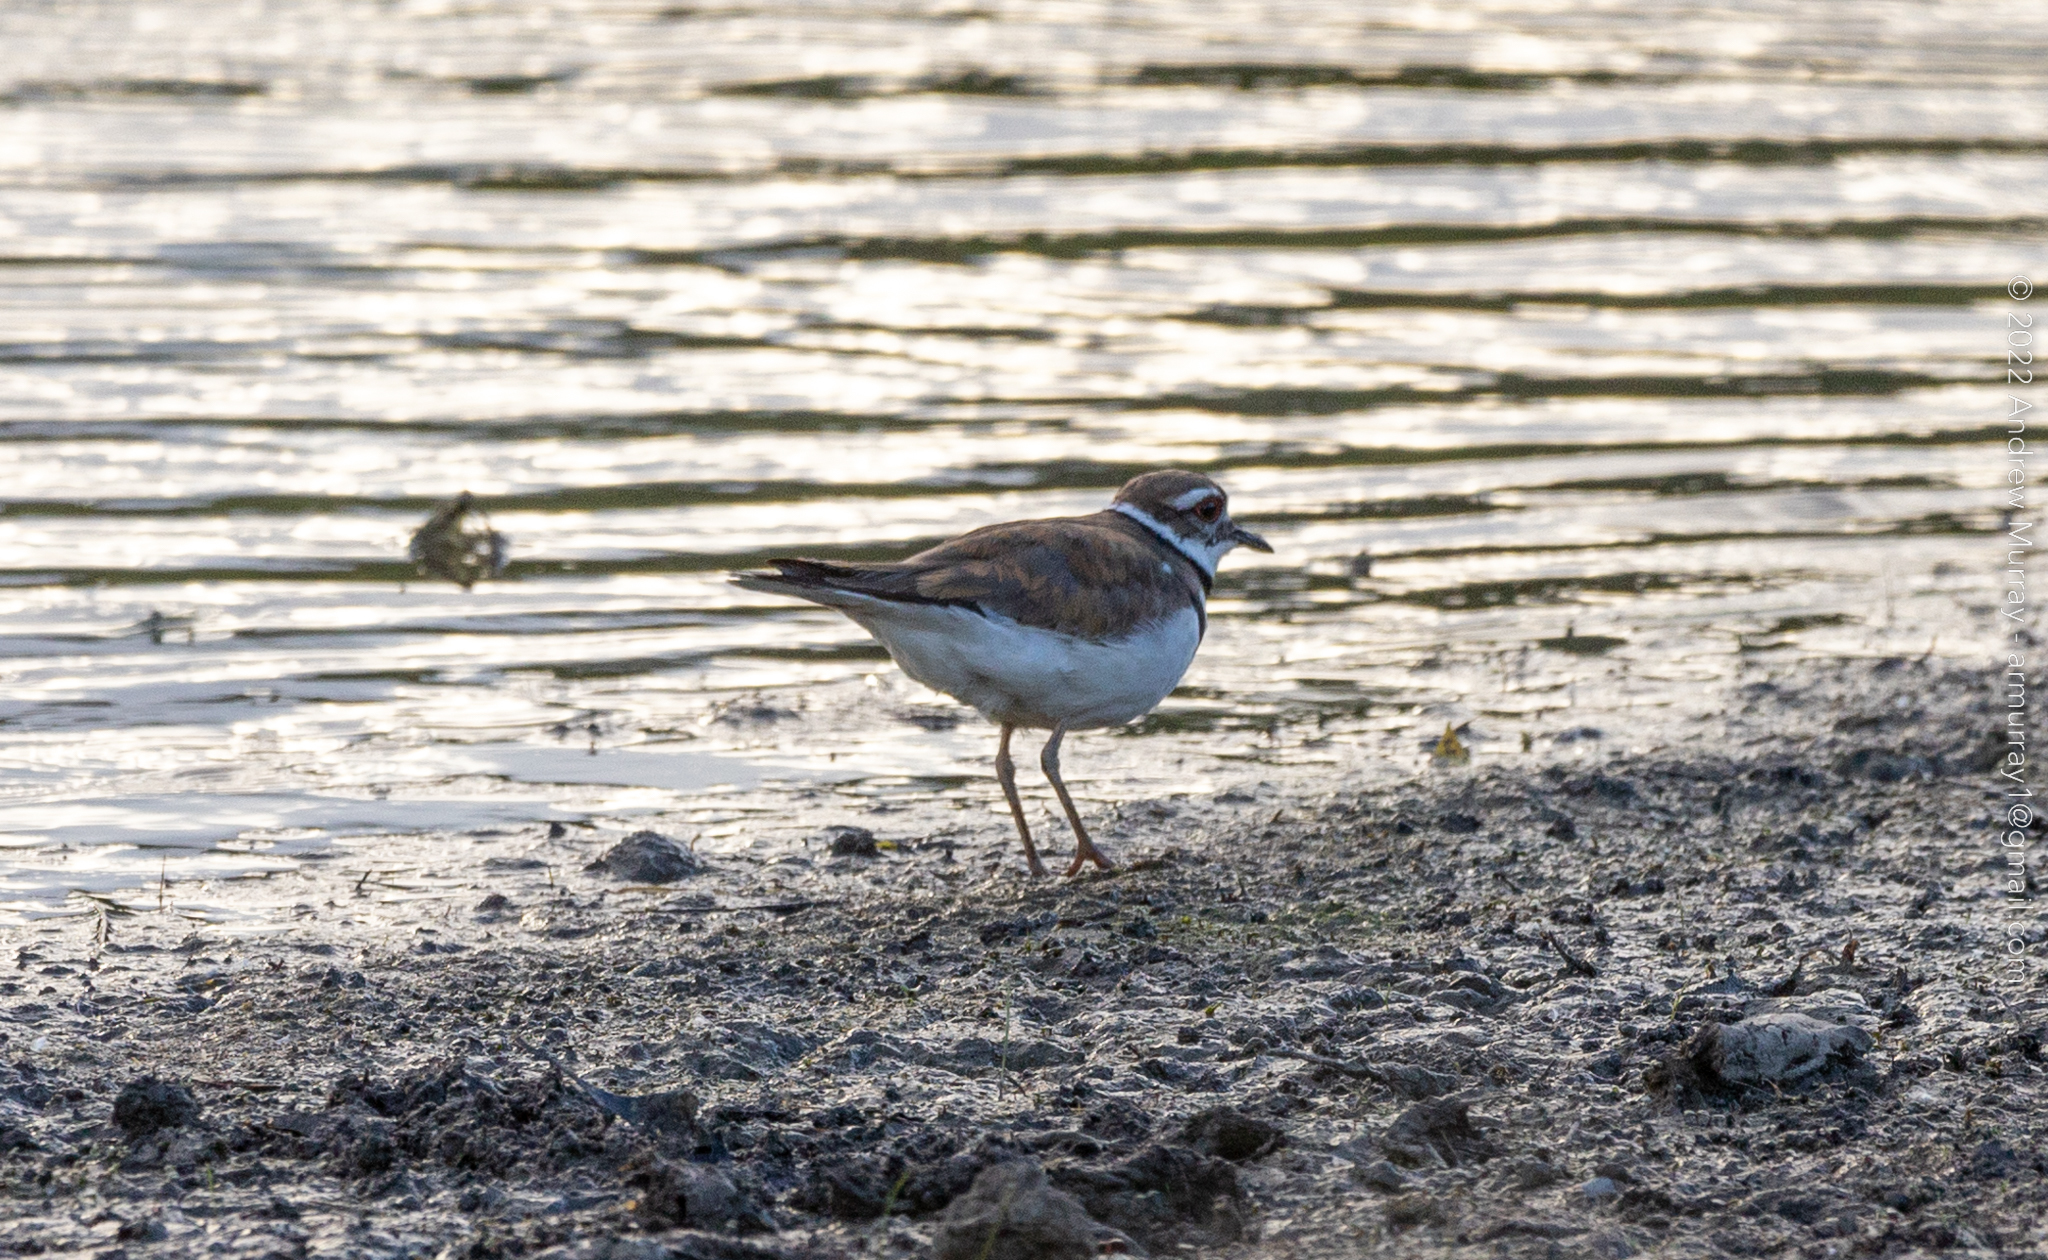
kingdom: Animalia
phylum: Chordata
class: Aves
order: Charadriiformes
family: Charadriidae
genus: Charadrius
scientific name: Charadrius vociferus
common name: Killdeer
